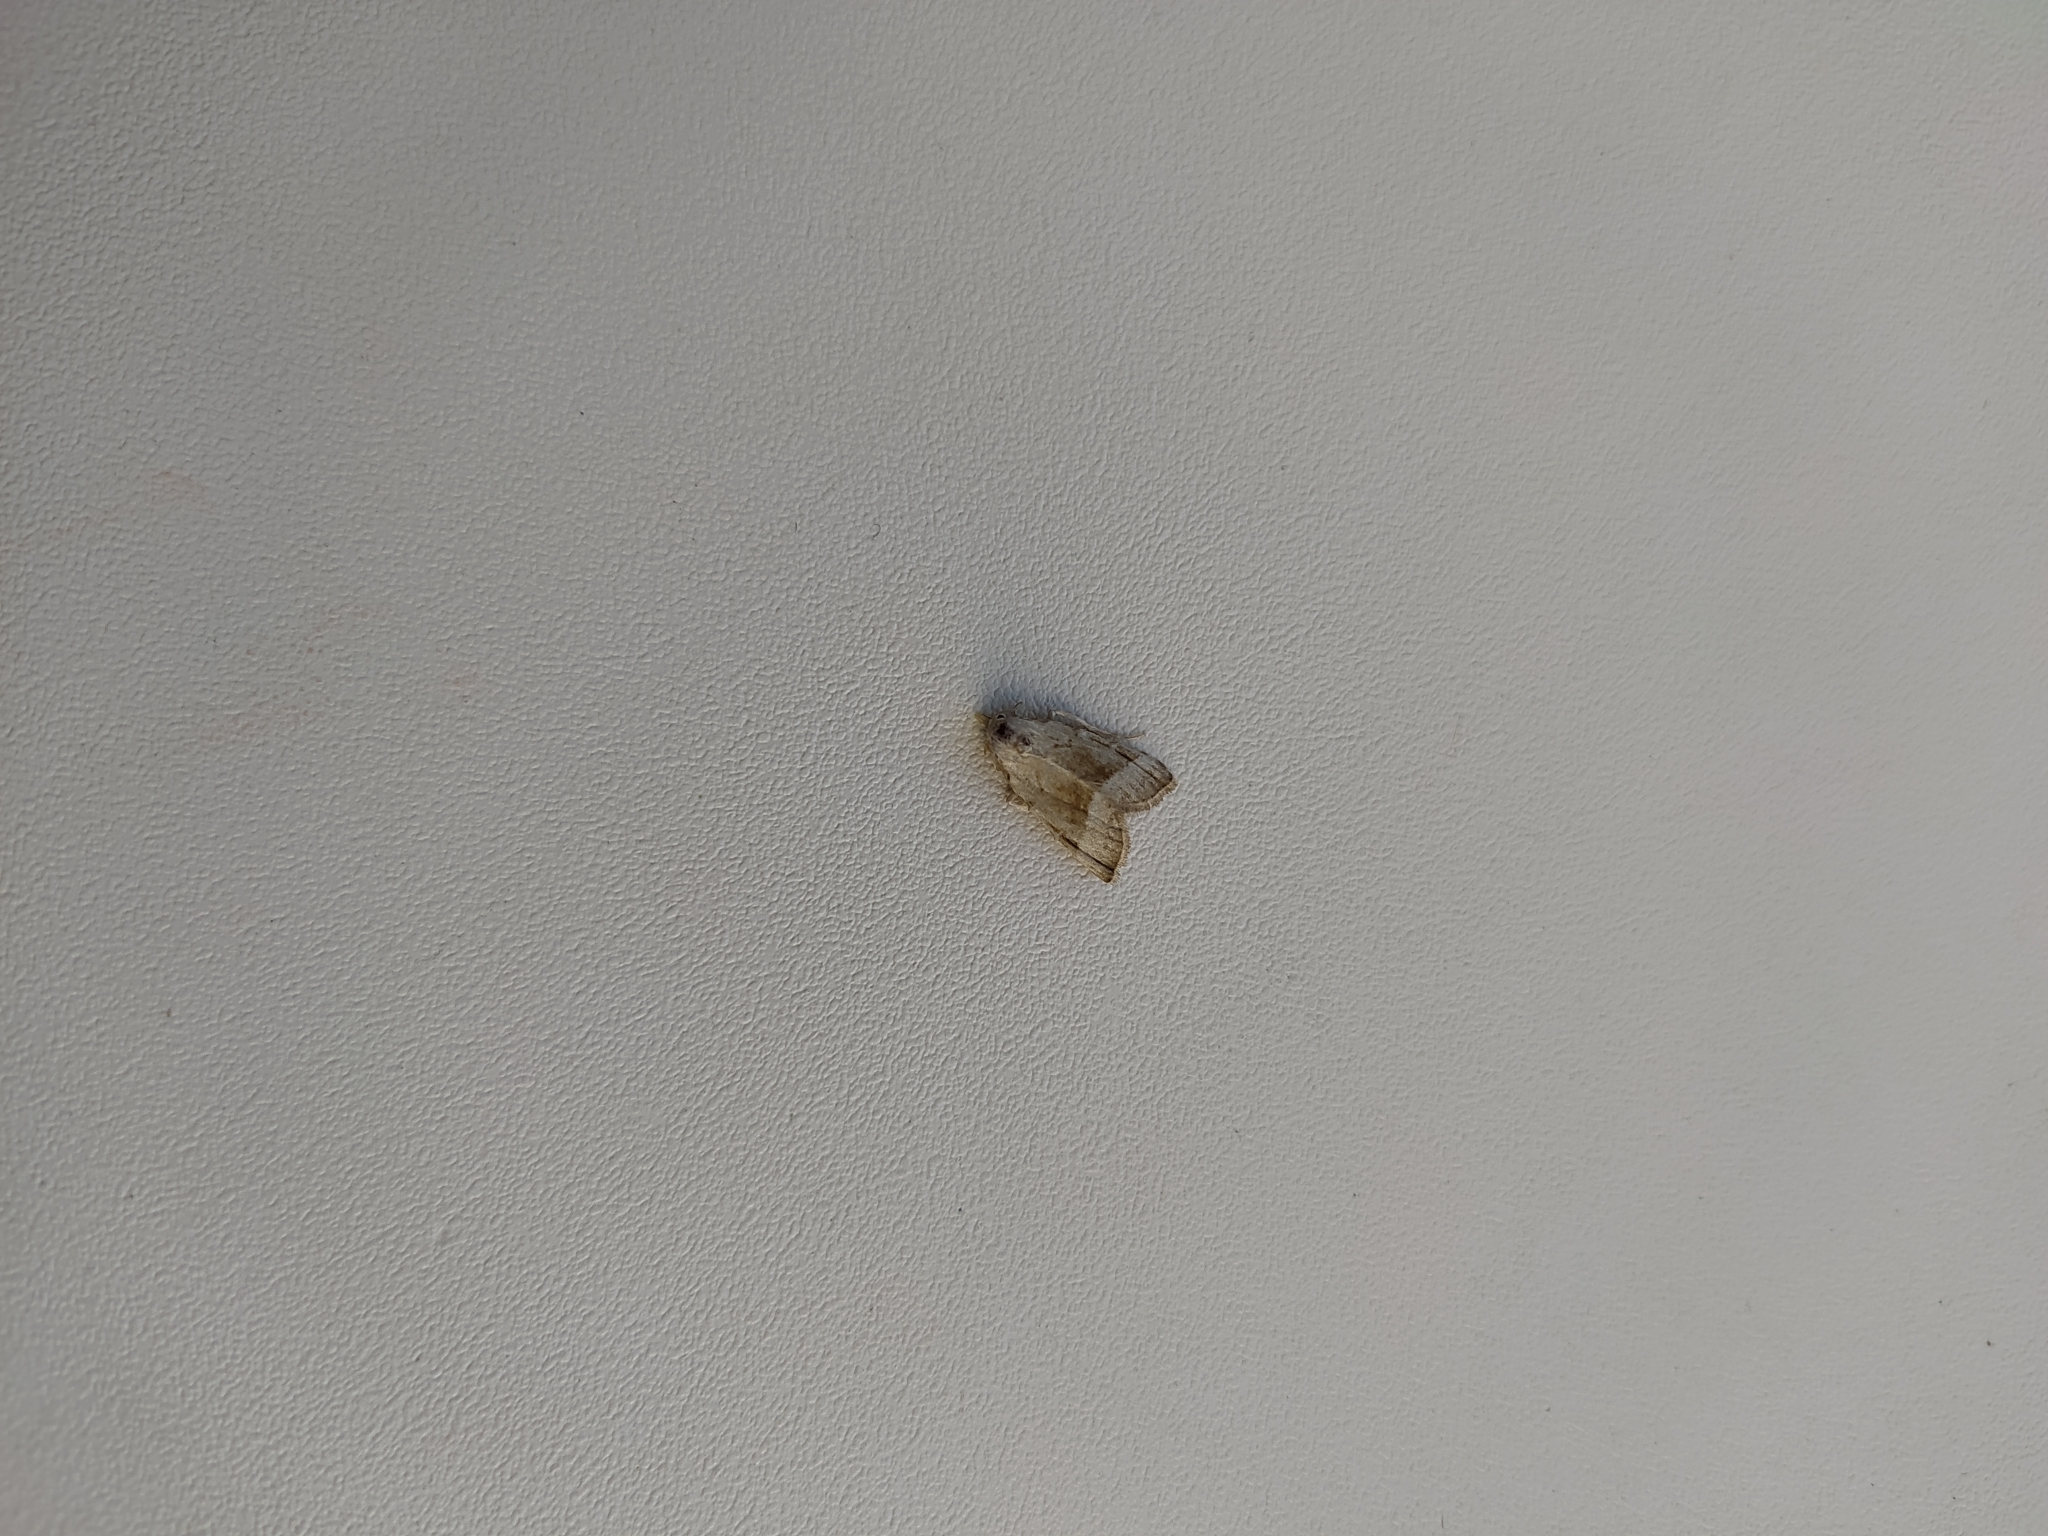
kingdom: Animalia
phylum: Arthropoda
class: Insecta
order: Lepidoptera
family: Nolidae
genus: Nola
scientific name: Nola aerugula
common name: Scarce black arches
